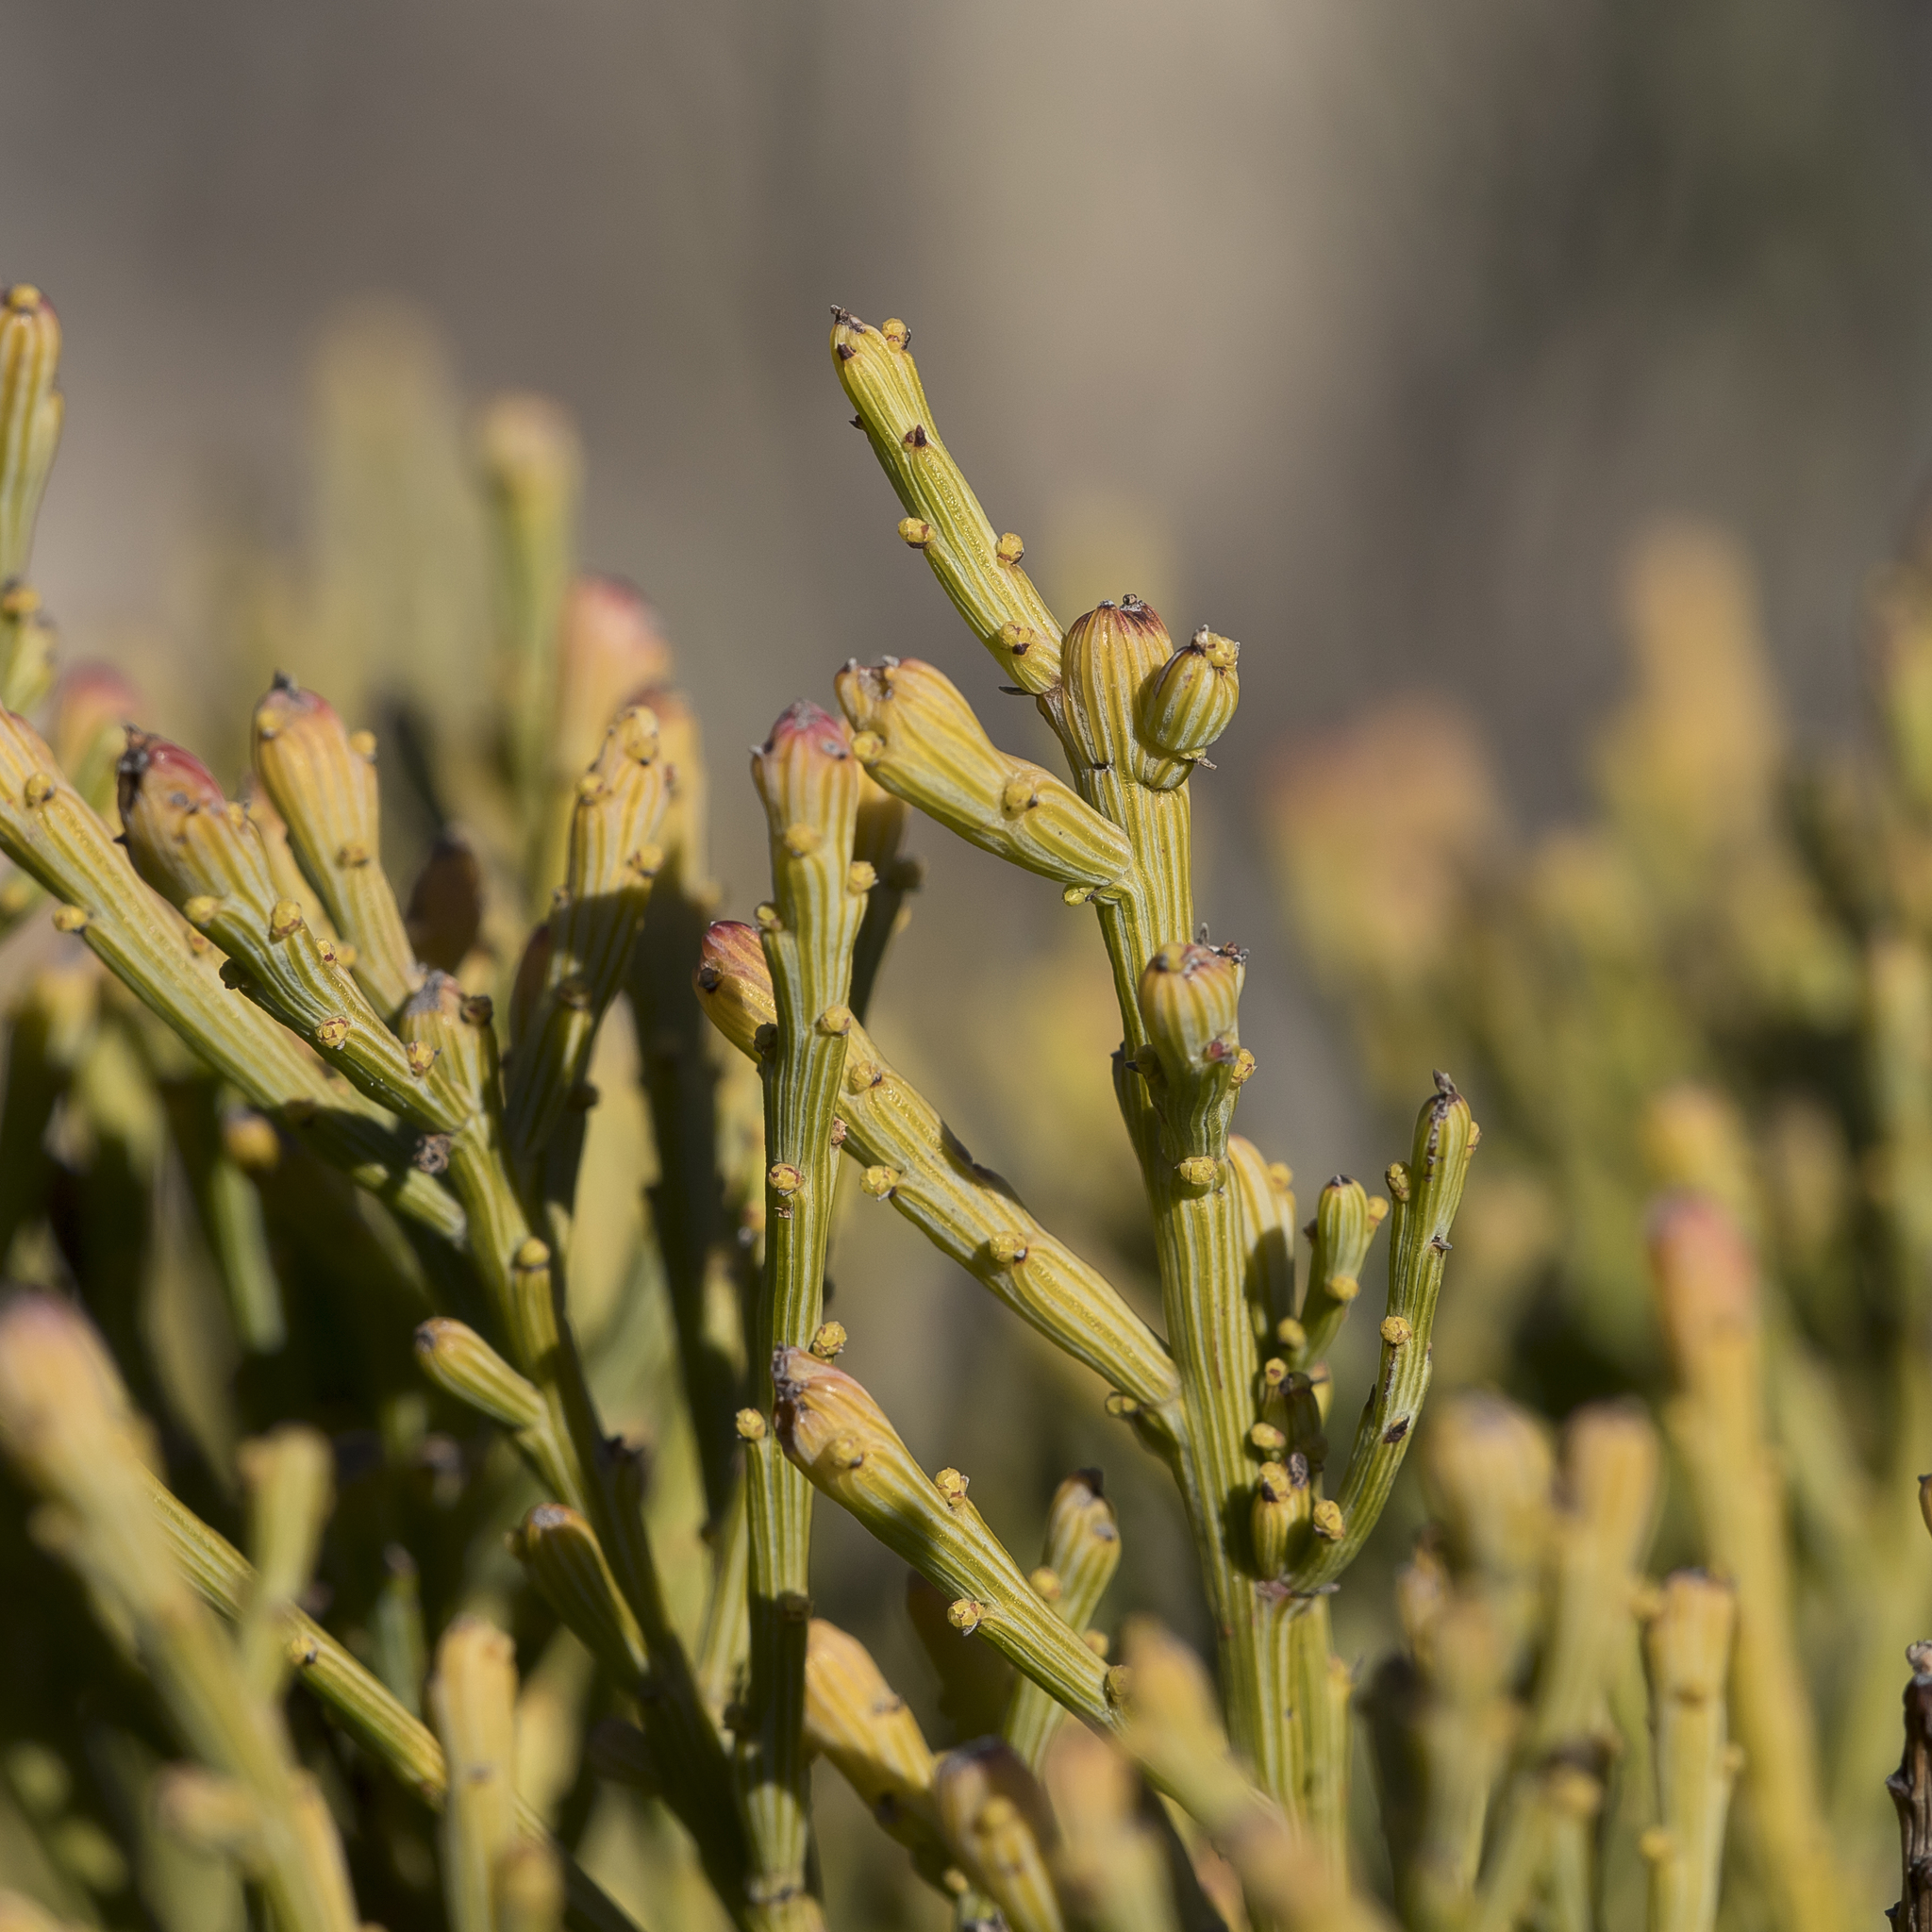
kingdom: Plantae
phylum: Tracheophyta
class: Magnoliopsida
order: Santalales
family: Santalaceae
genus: Exocarpos
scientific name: Exocarpos syrticola
